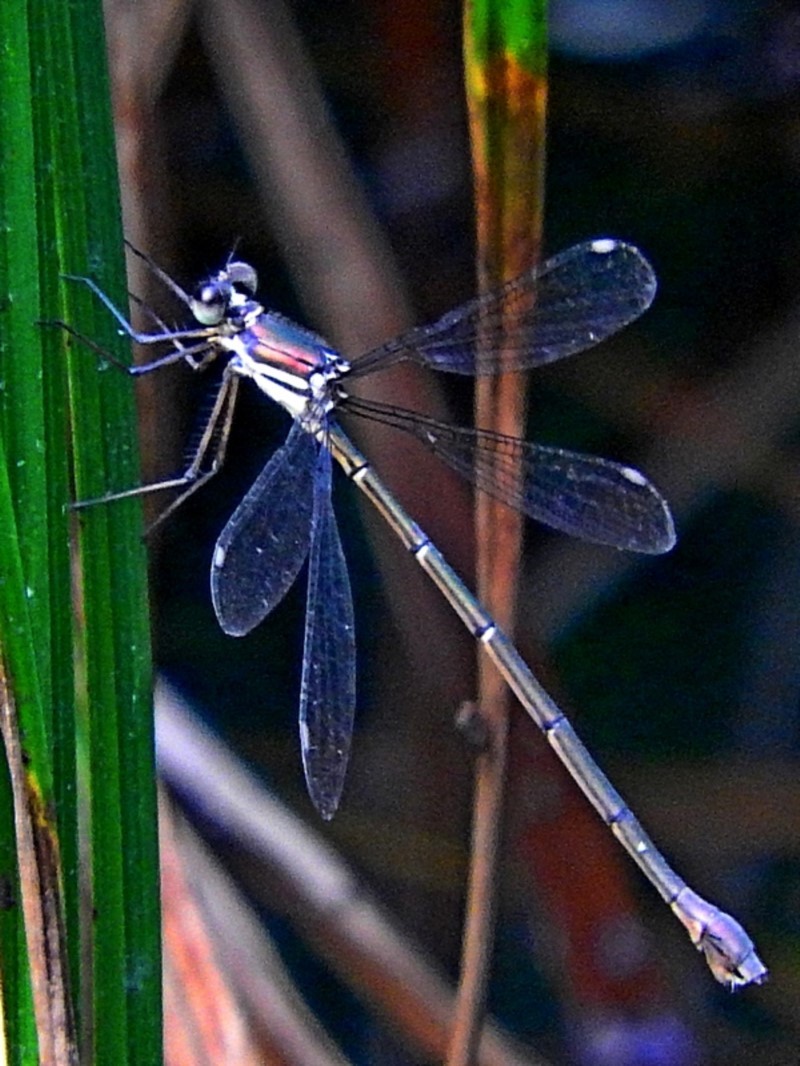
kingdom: Animalia
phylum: Arthropoda
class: Insecta
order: Odonata
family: Synlestidae
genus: Synlestes
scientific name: Synlestes weyersii
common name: Bronze needle
